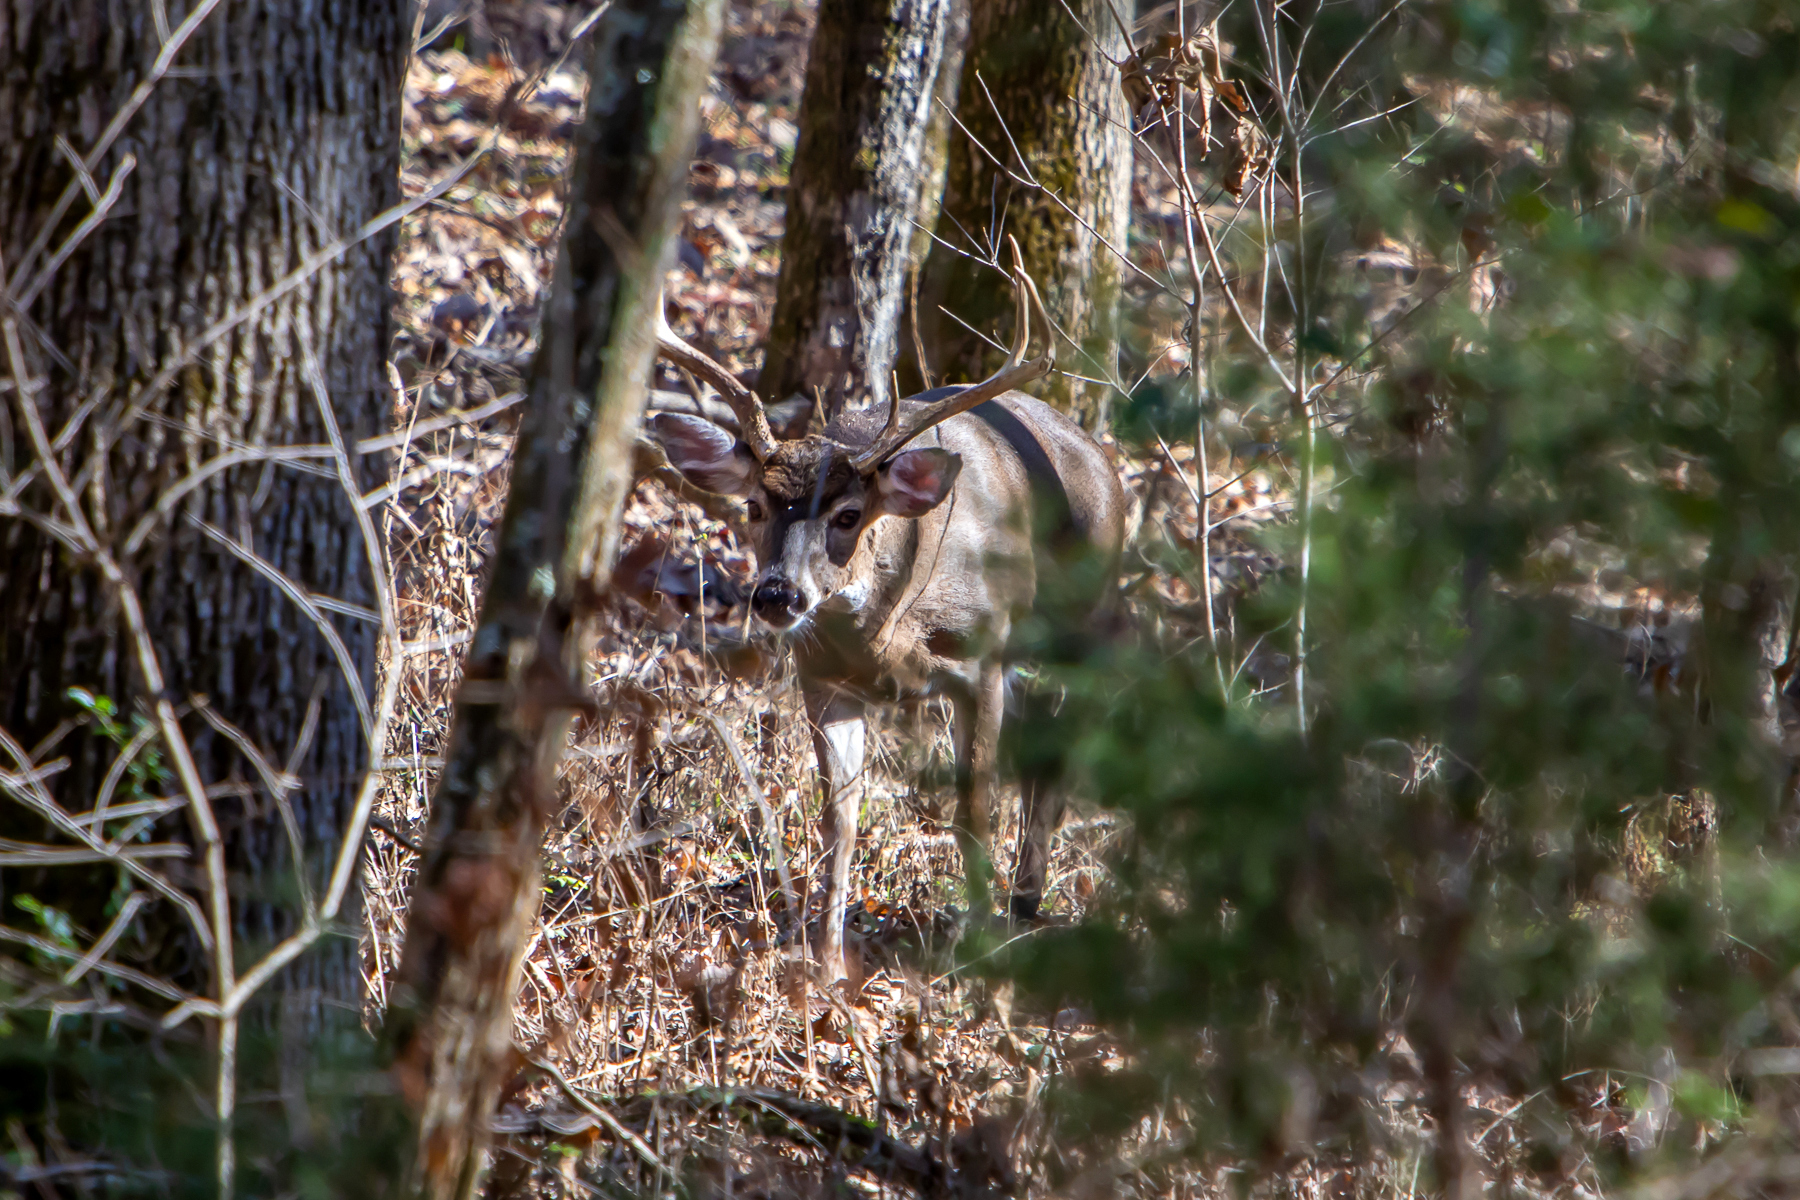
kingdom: Animalia
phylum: Chordata
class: Mammalia
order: Artiodactyla
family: Cervidae
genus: Odocoileus
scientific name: Odocoileus virginianus
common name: White-tailed deer
